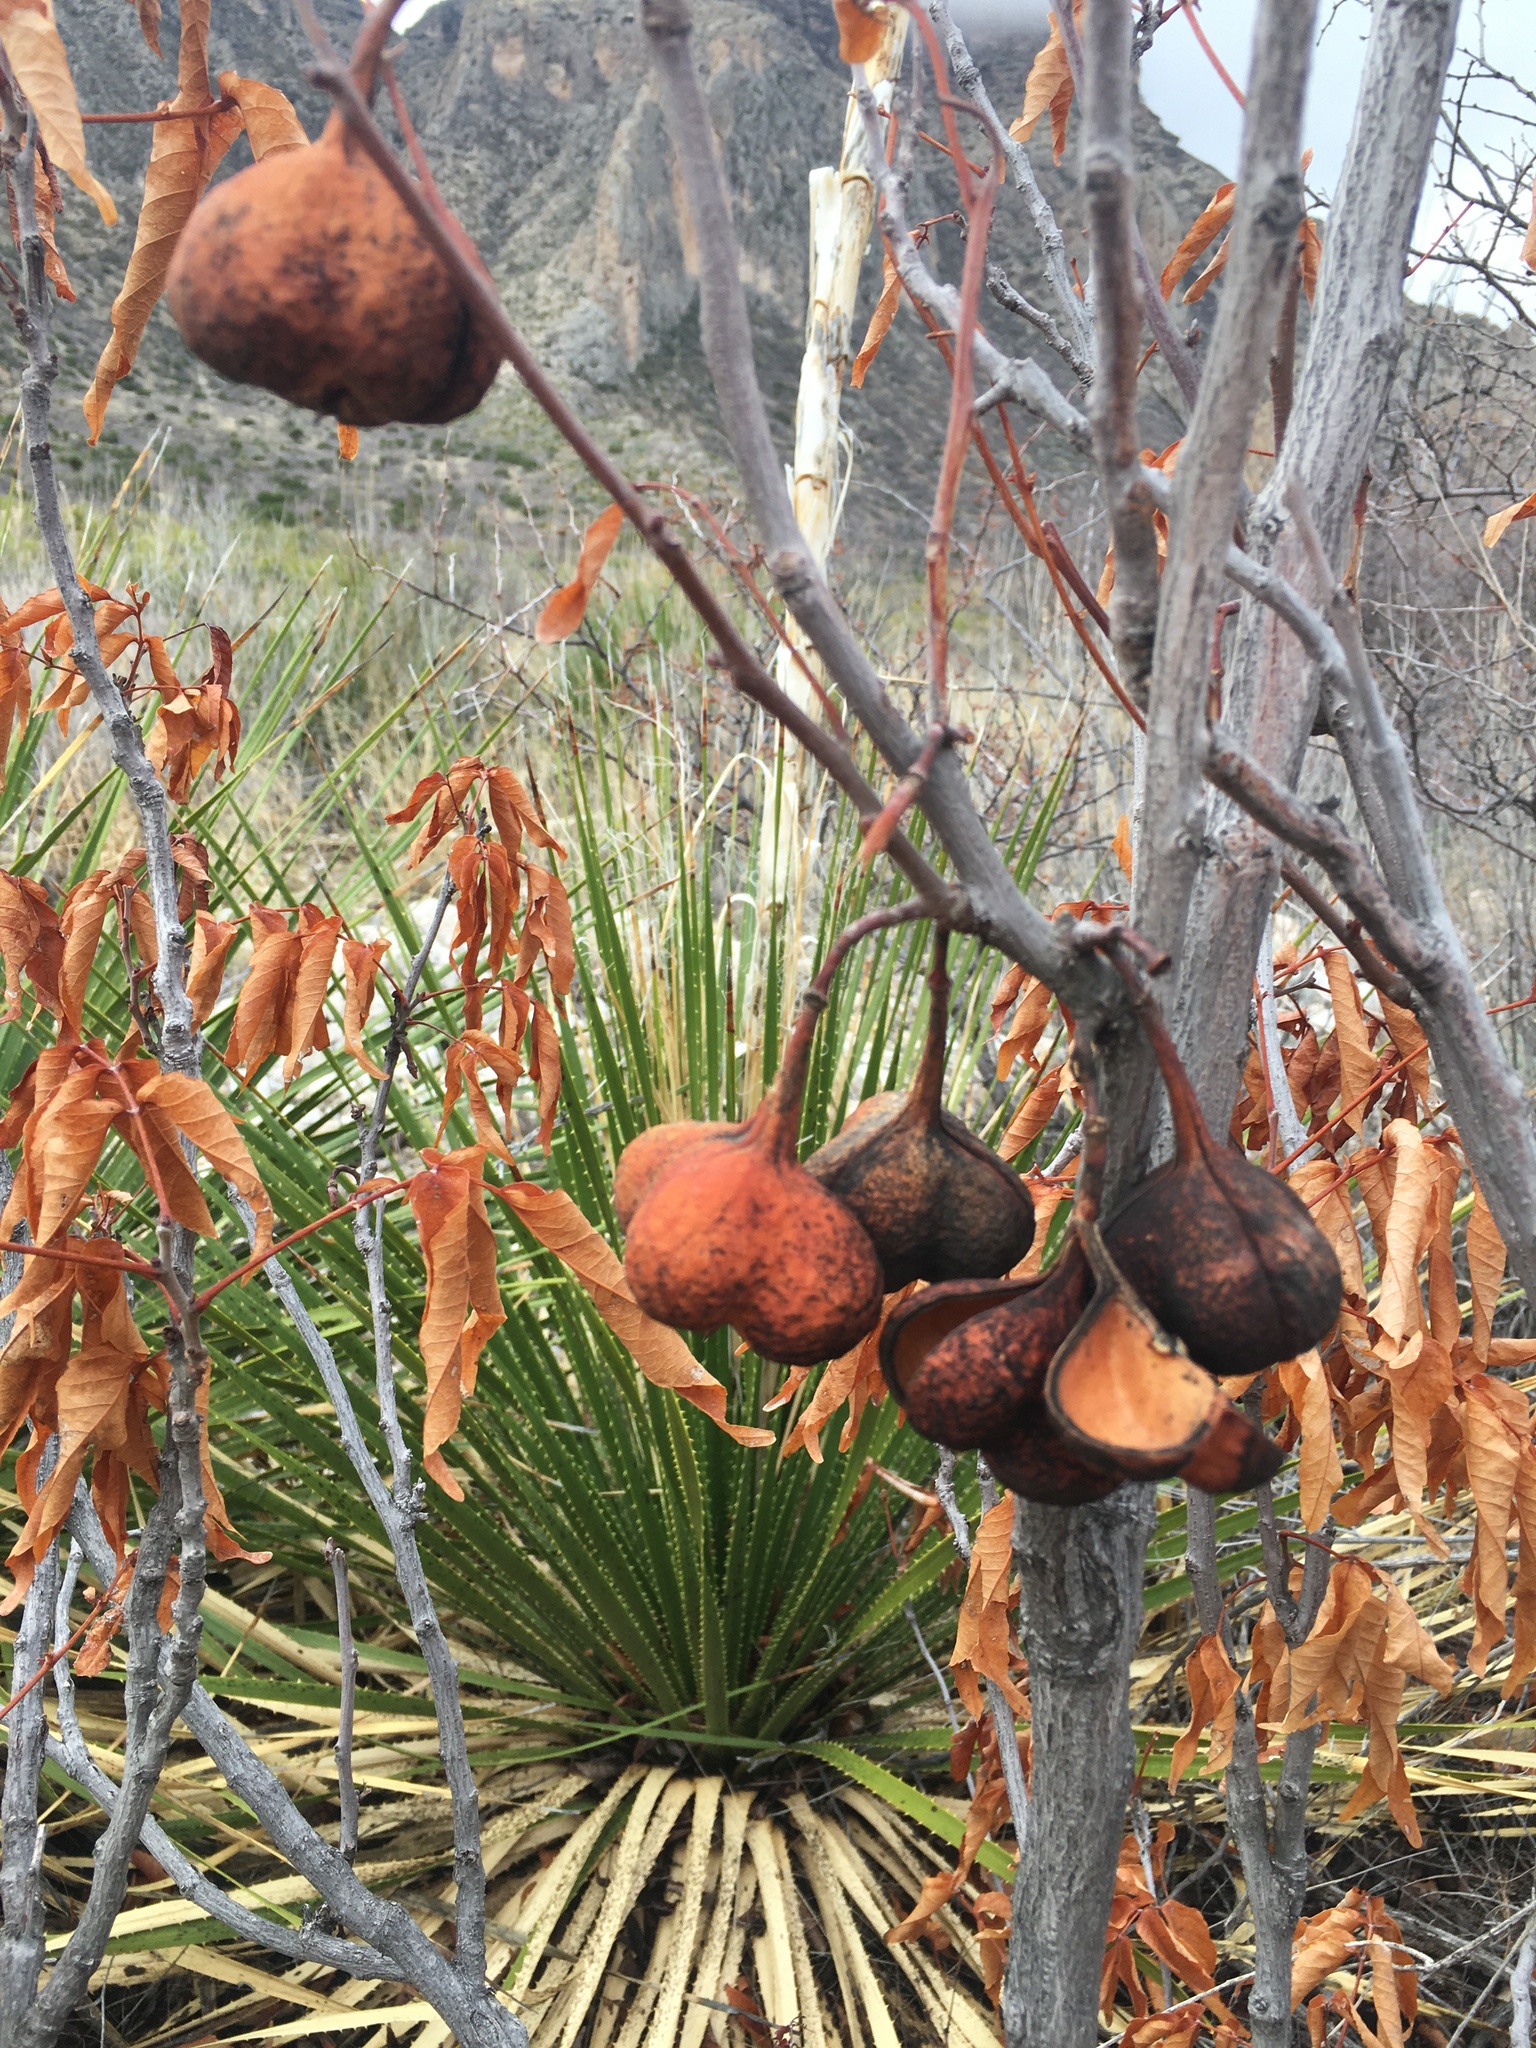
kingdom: Plantae
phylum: Tracheophyta
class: Magnoliopsida
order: Sapindales
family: Sapindaceae
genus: Ungnadia
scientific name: Ungnadia speciosa
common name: Texas-buckeye
